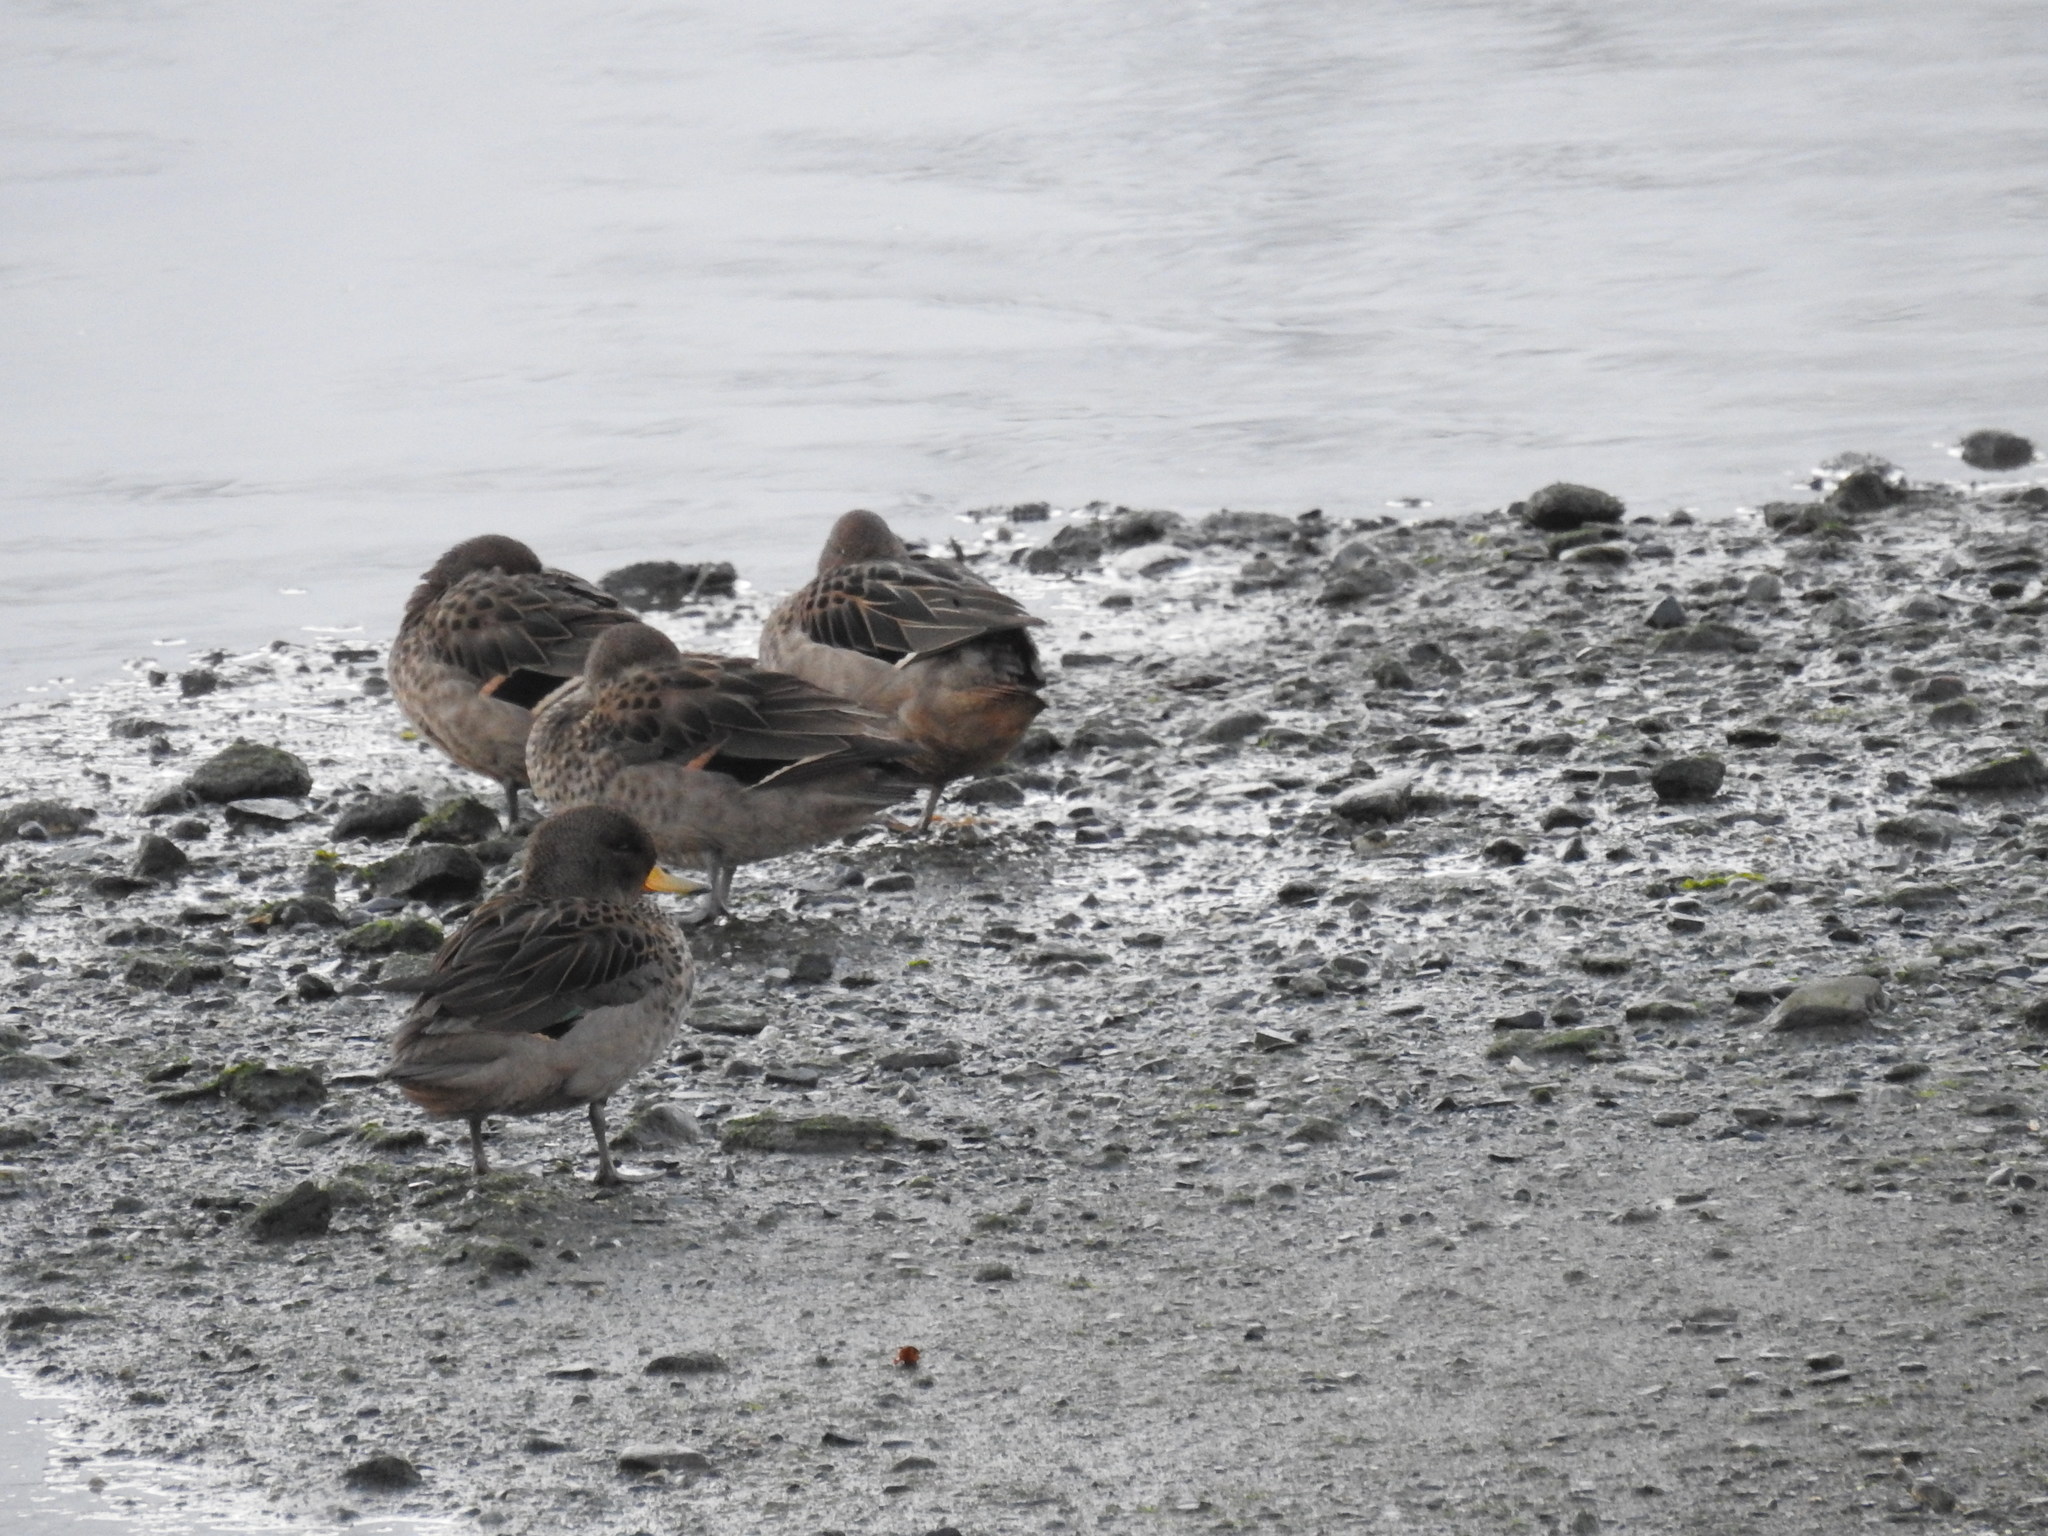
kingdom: Animalia
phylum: Chordata
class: Aves
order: Anseriformes
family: Anatidae
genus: Anas
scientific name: Anas flavirostris
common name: Yellow-billed teal
